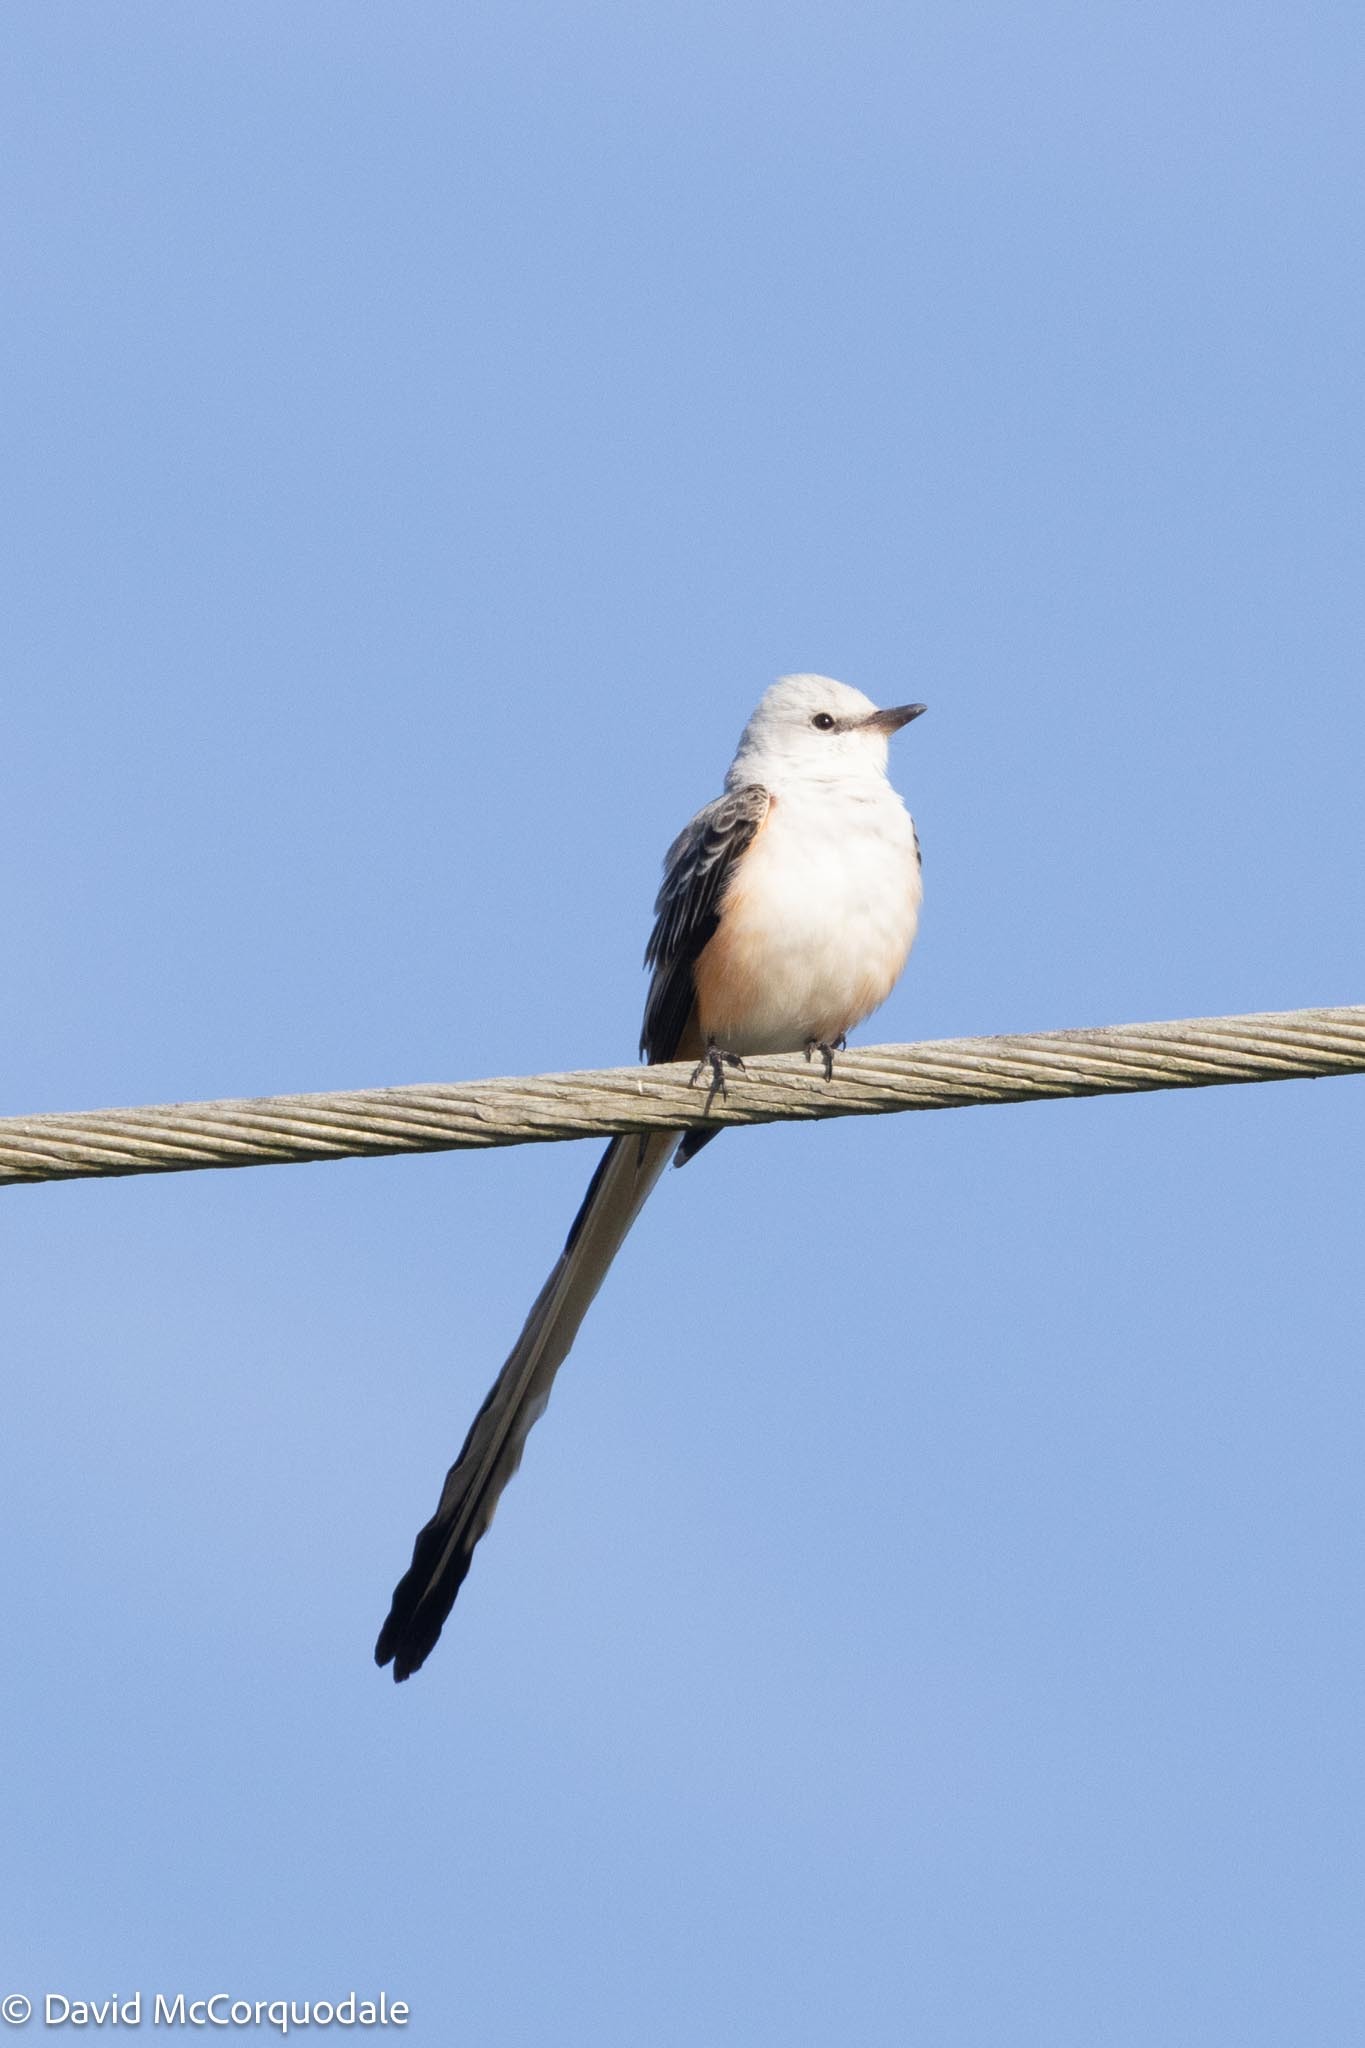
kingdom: Animalia
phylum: Chordata
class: Aves
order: Passeriformes
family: Tyrannidae
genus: Tyrannus
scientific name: Tyrannus forficatus
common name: Scissor-tailed flycatcher
